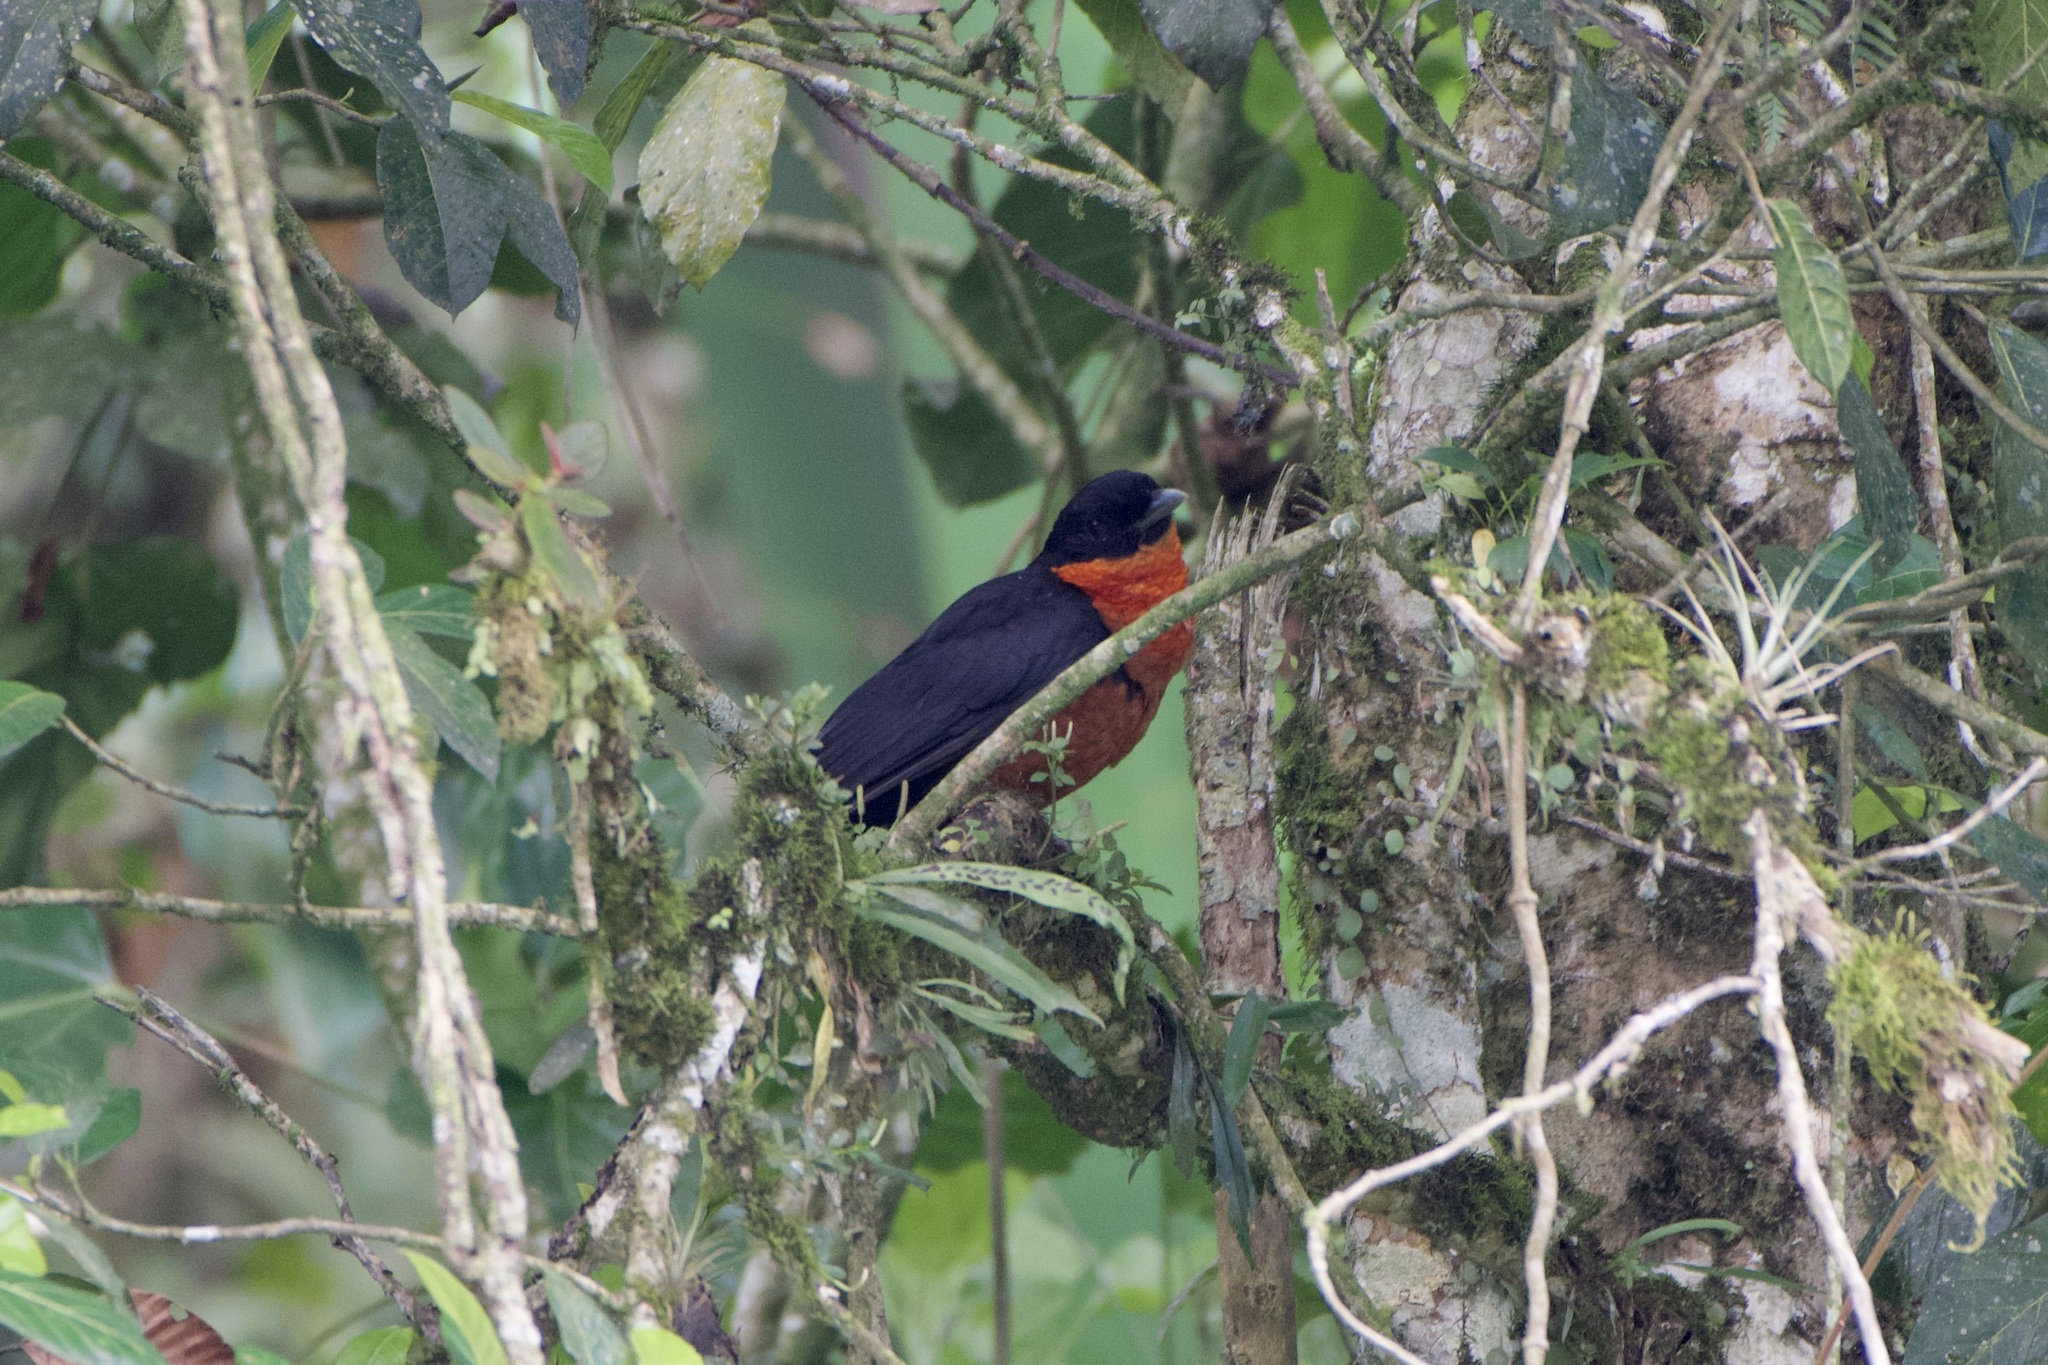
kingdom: Animalia
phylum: Chordata
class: Aves
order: Passeriformes
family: Cotingidae
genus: Pyroderus
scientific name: Pyroderus scutatus
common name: Red-ruffed fruitcrow
